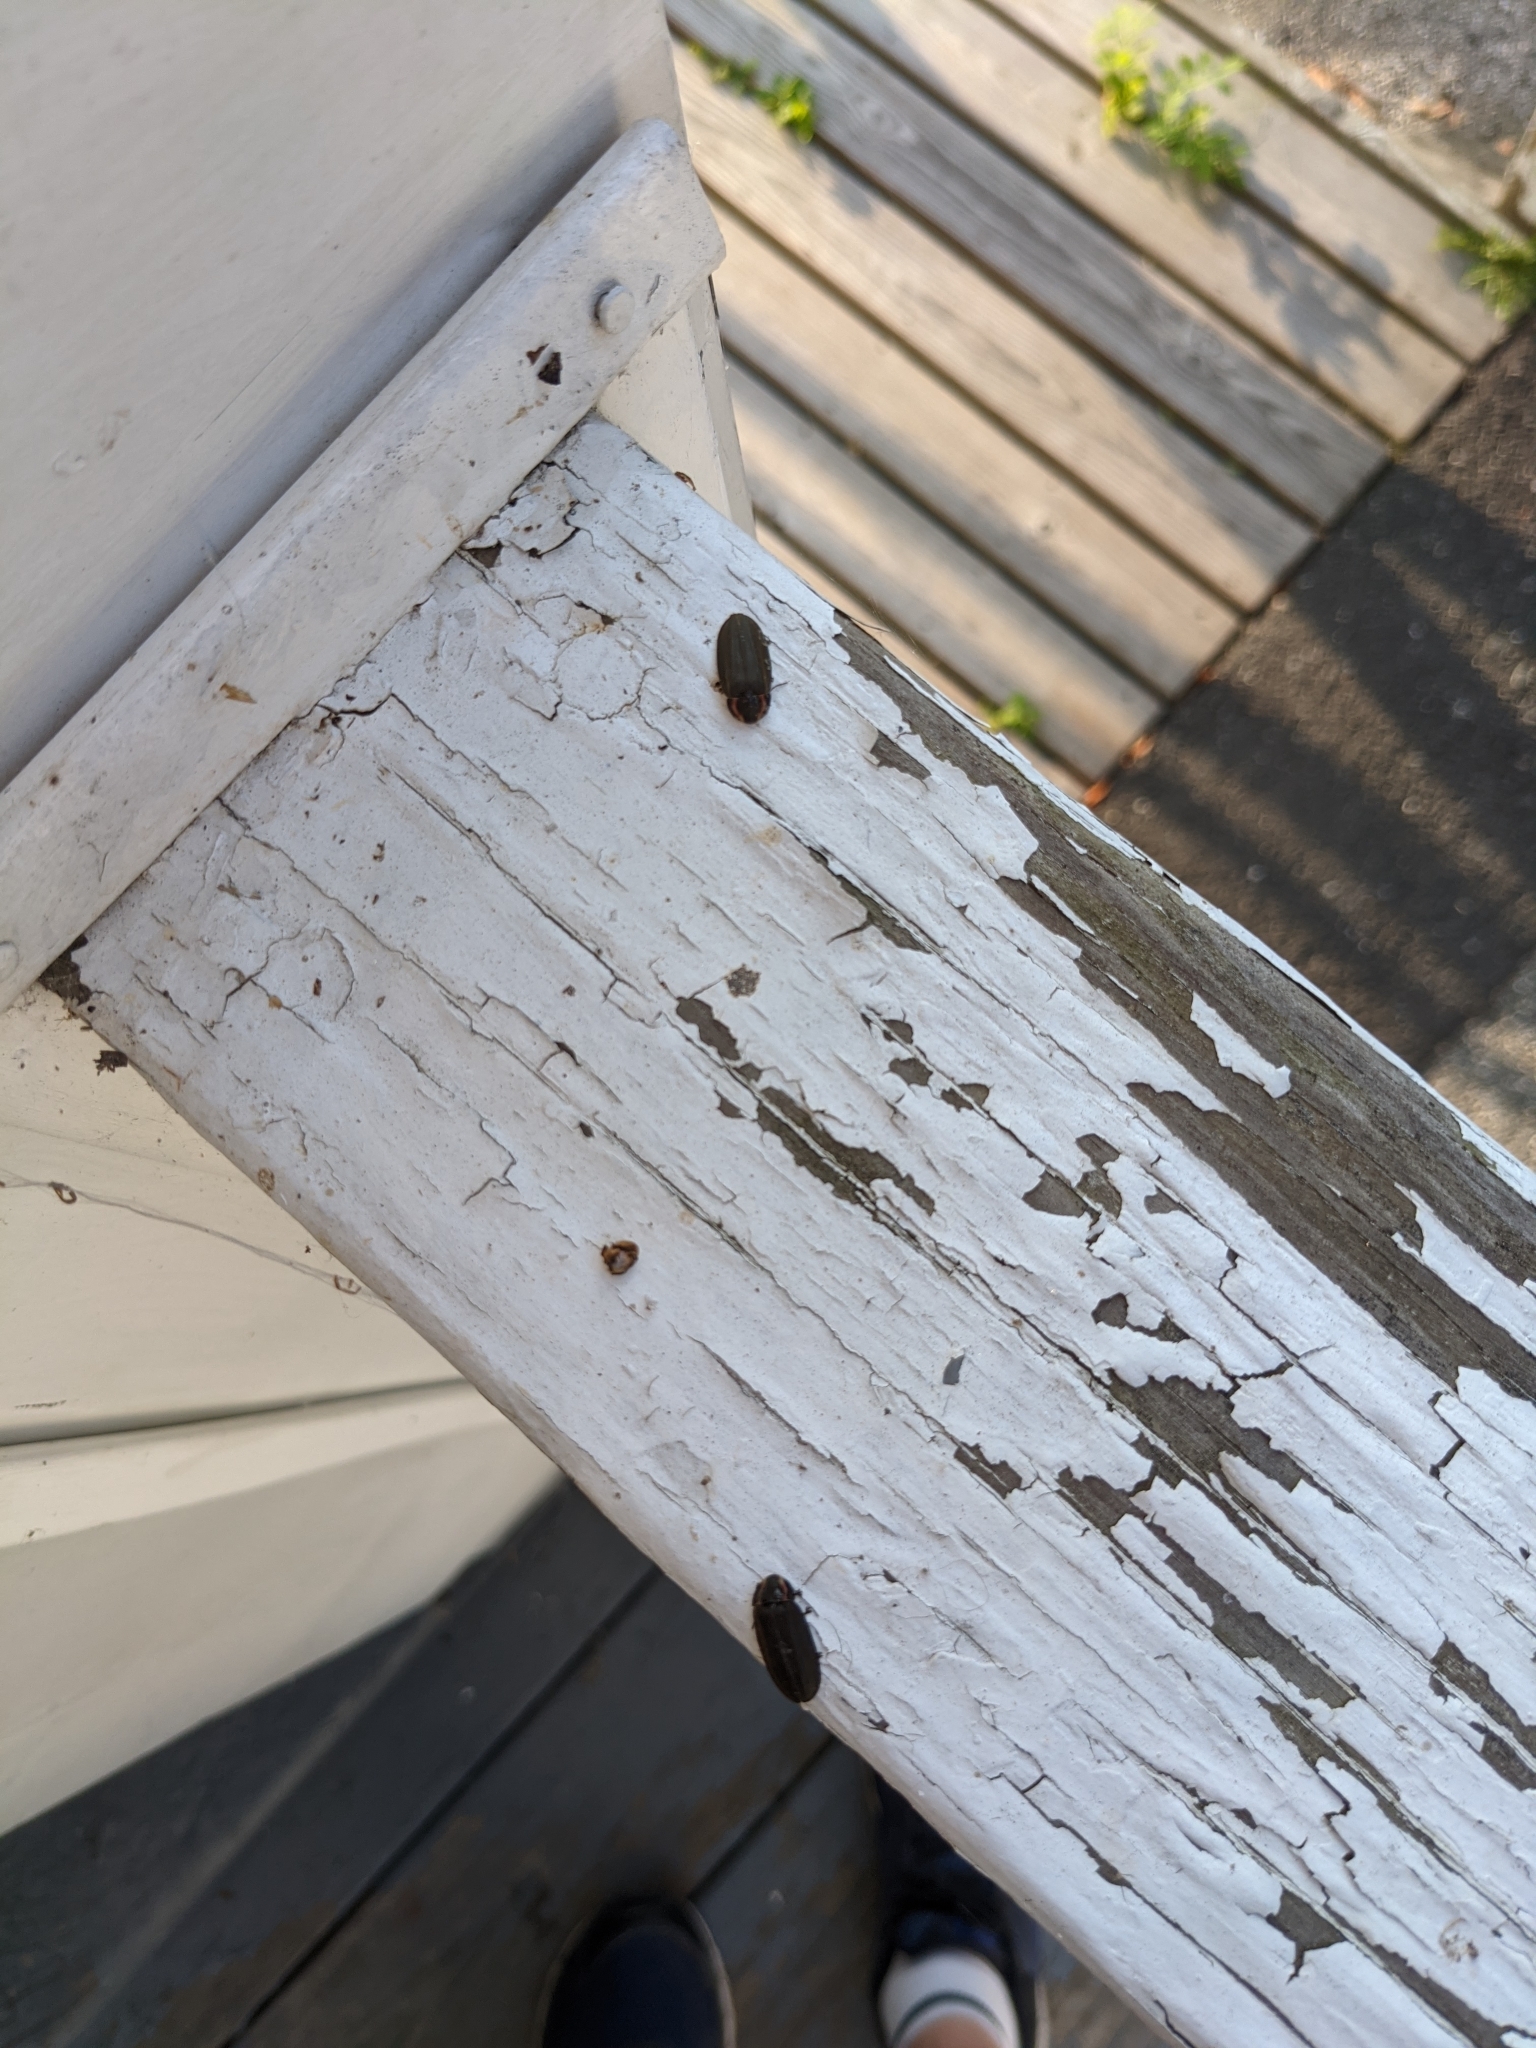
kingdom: Animalia
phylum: Arthropoda
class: Insecta
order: Coleoptera
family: Lampyridae
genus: Photinus
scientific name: Photinus corrusca
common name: Winter firefly
